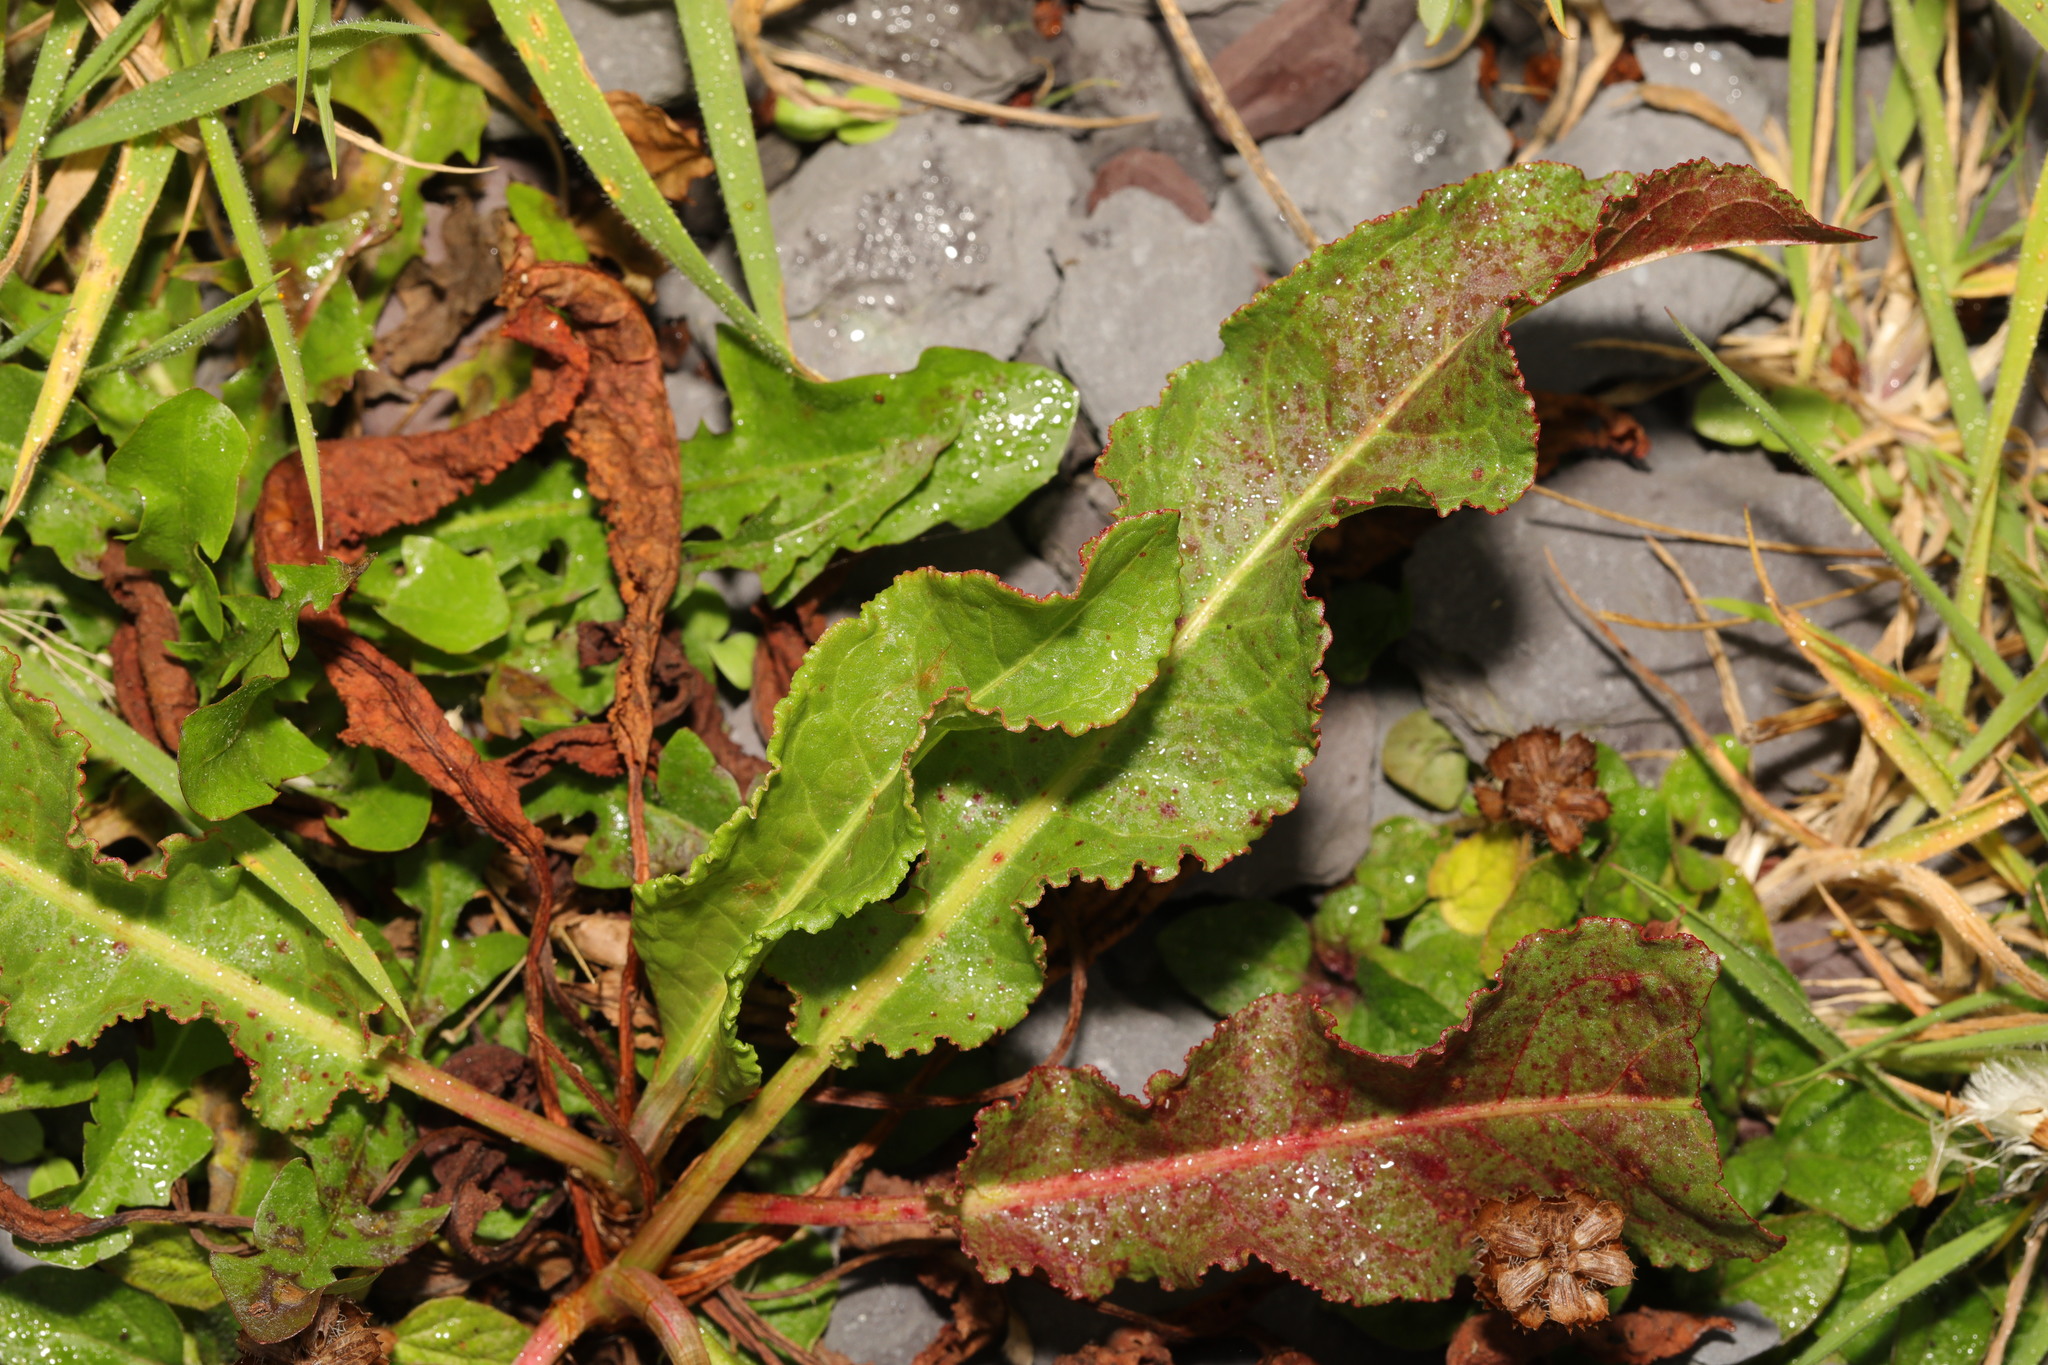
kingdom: Plantae
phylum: Tracheophyta
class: Magnoliopsida
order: Caryophyllales
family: Polygonaceae
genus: Rumex
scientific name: Rumex crispus
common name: Curled dock
